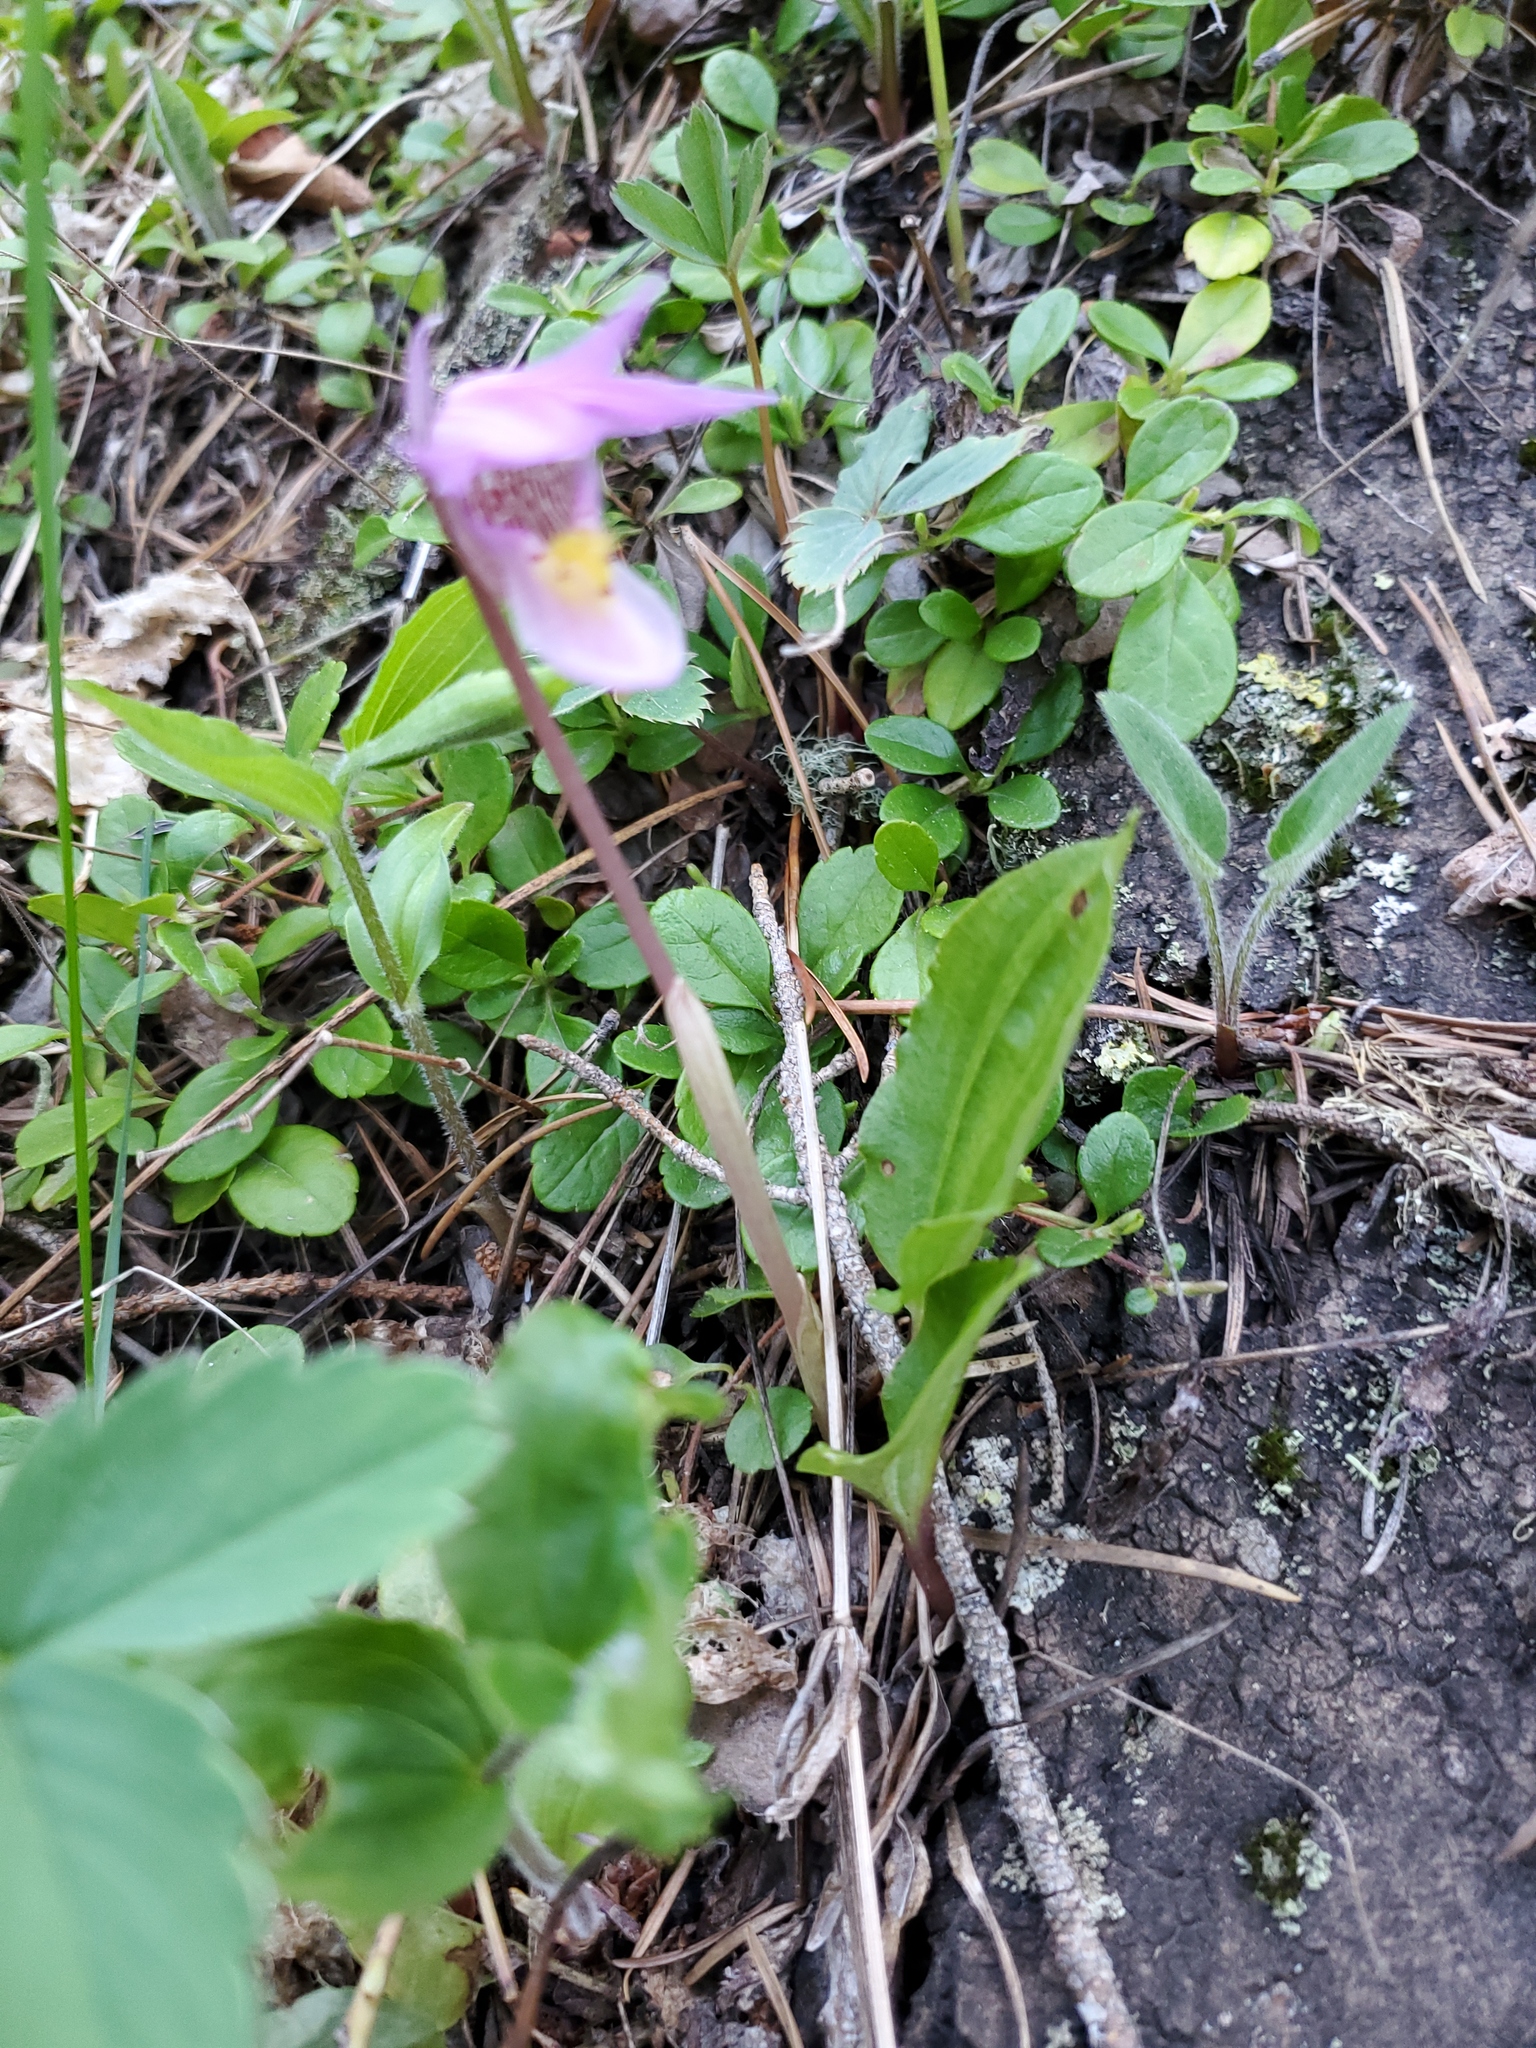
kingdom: Plantae
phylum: Tracheophyta
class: Liliopsida
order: Asparagales
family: Orchidaceae
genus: Calypso
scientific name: Calypso bulbosa
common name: Calypso
